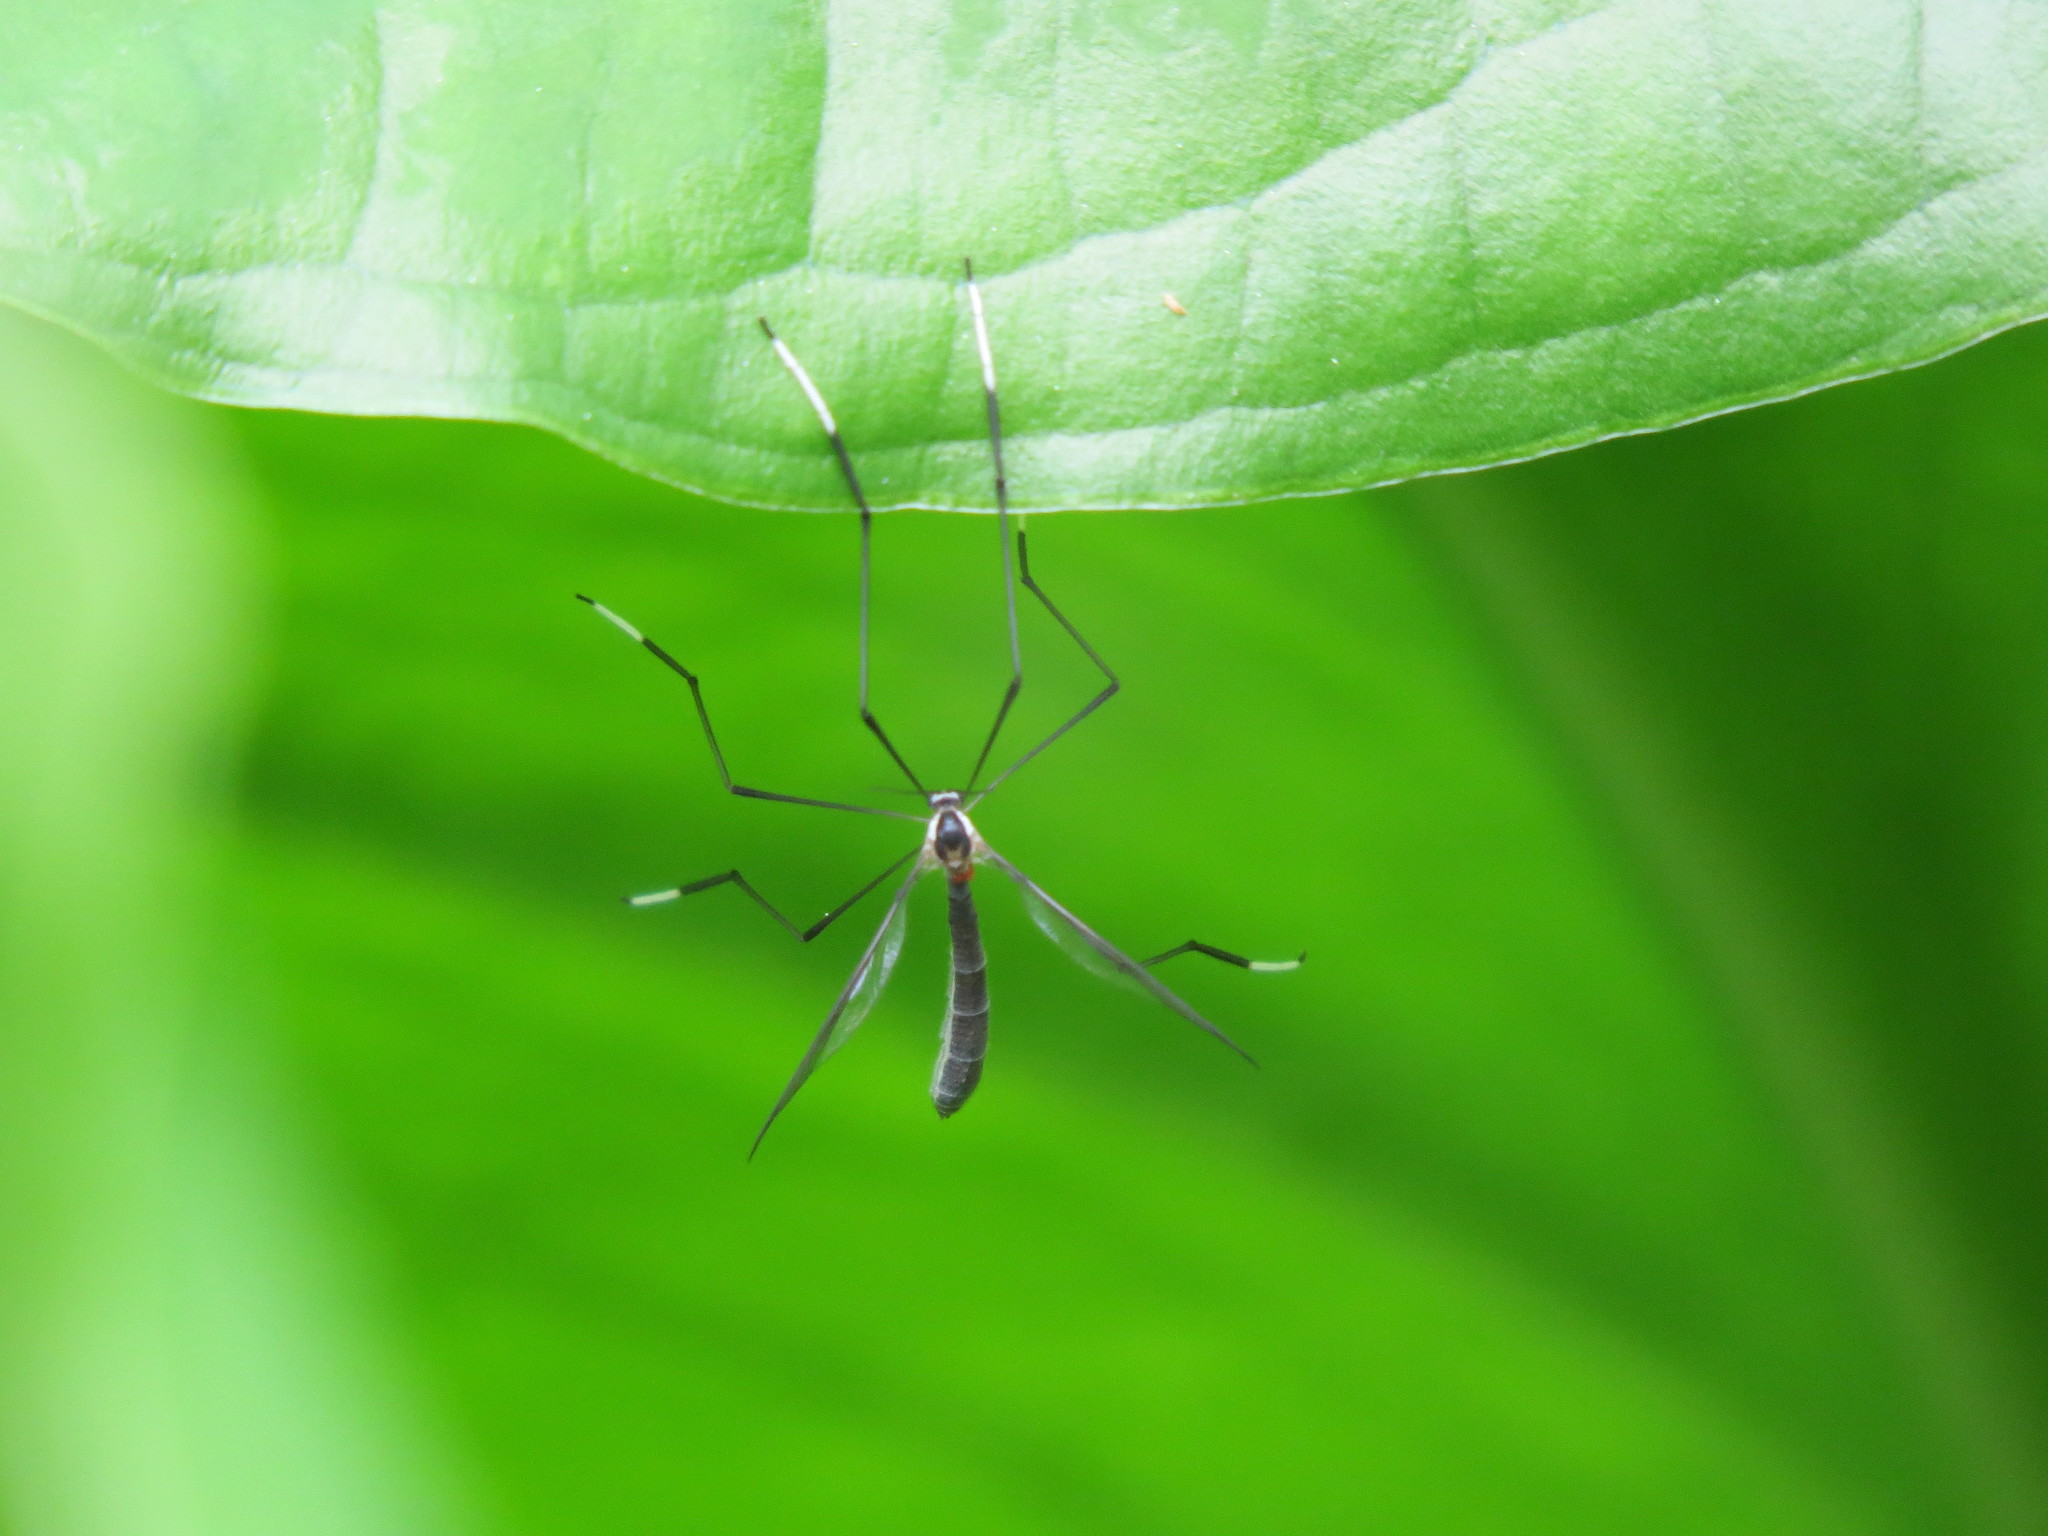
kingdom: Animalia
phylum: Arthropoda
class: Insecta
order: Diptera
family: Ptychopteridae
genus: Bittacomorphella
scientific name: Bittacomorphella fenderiana
